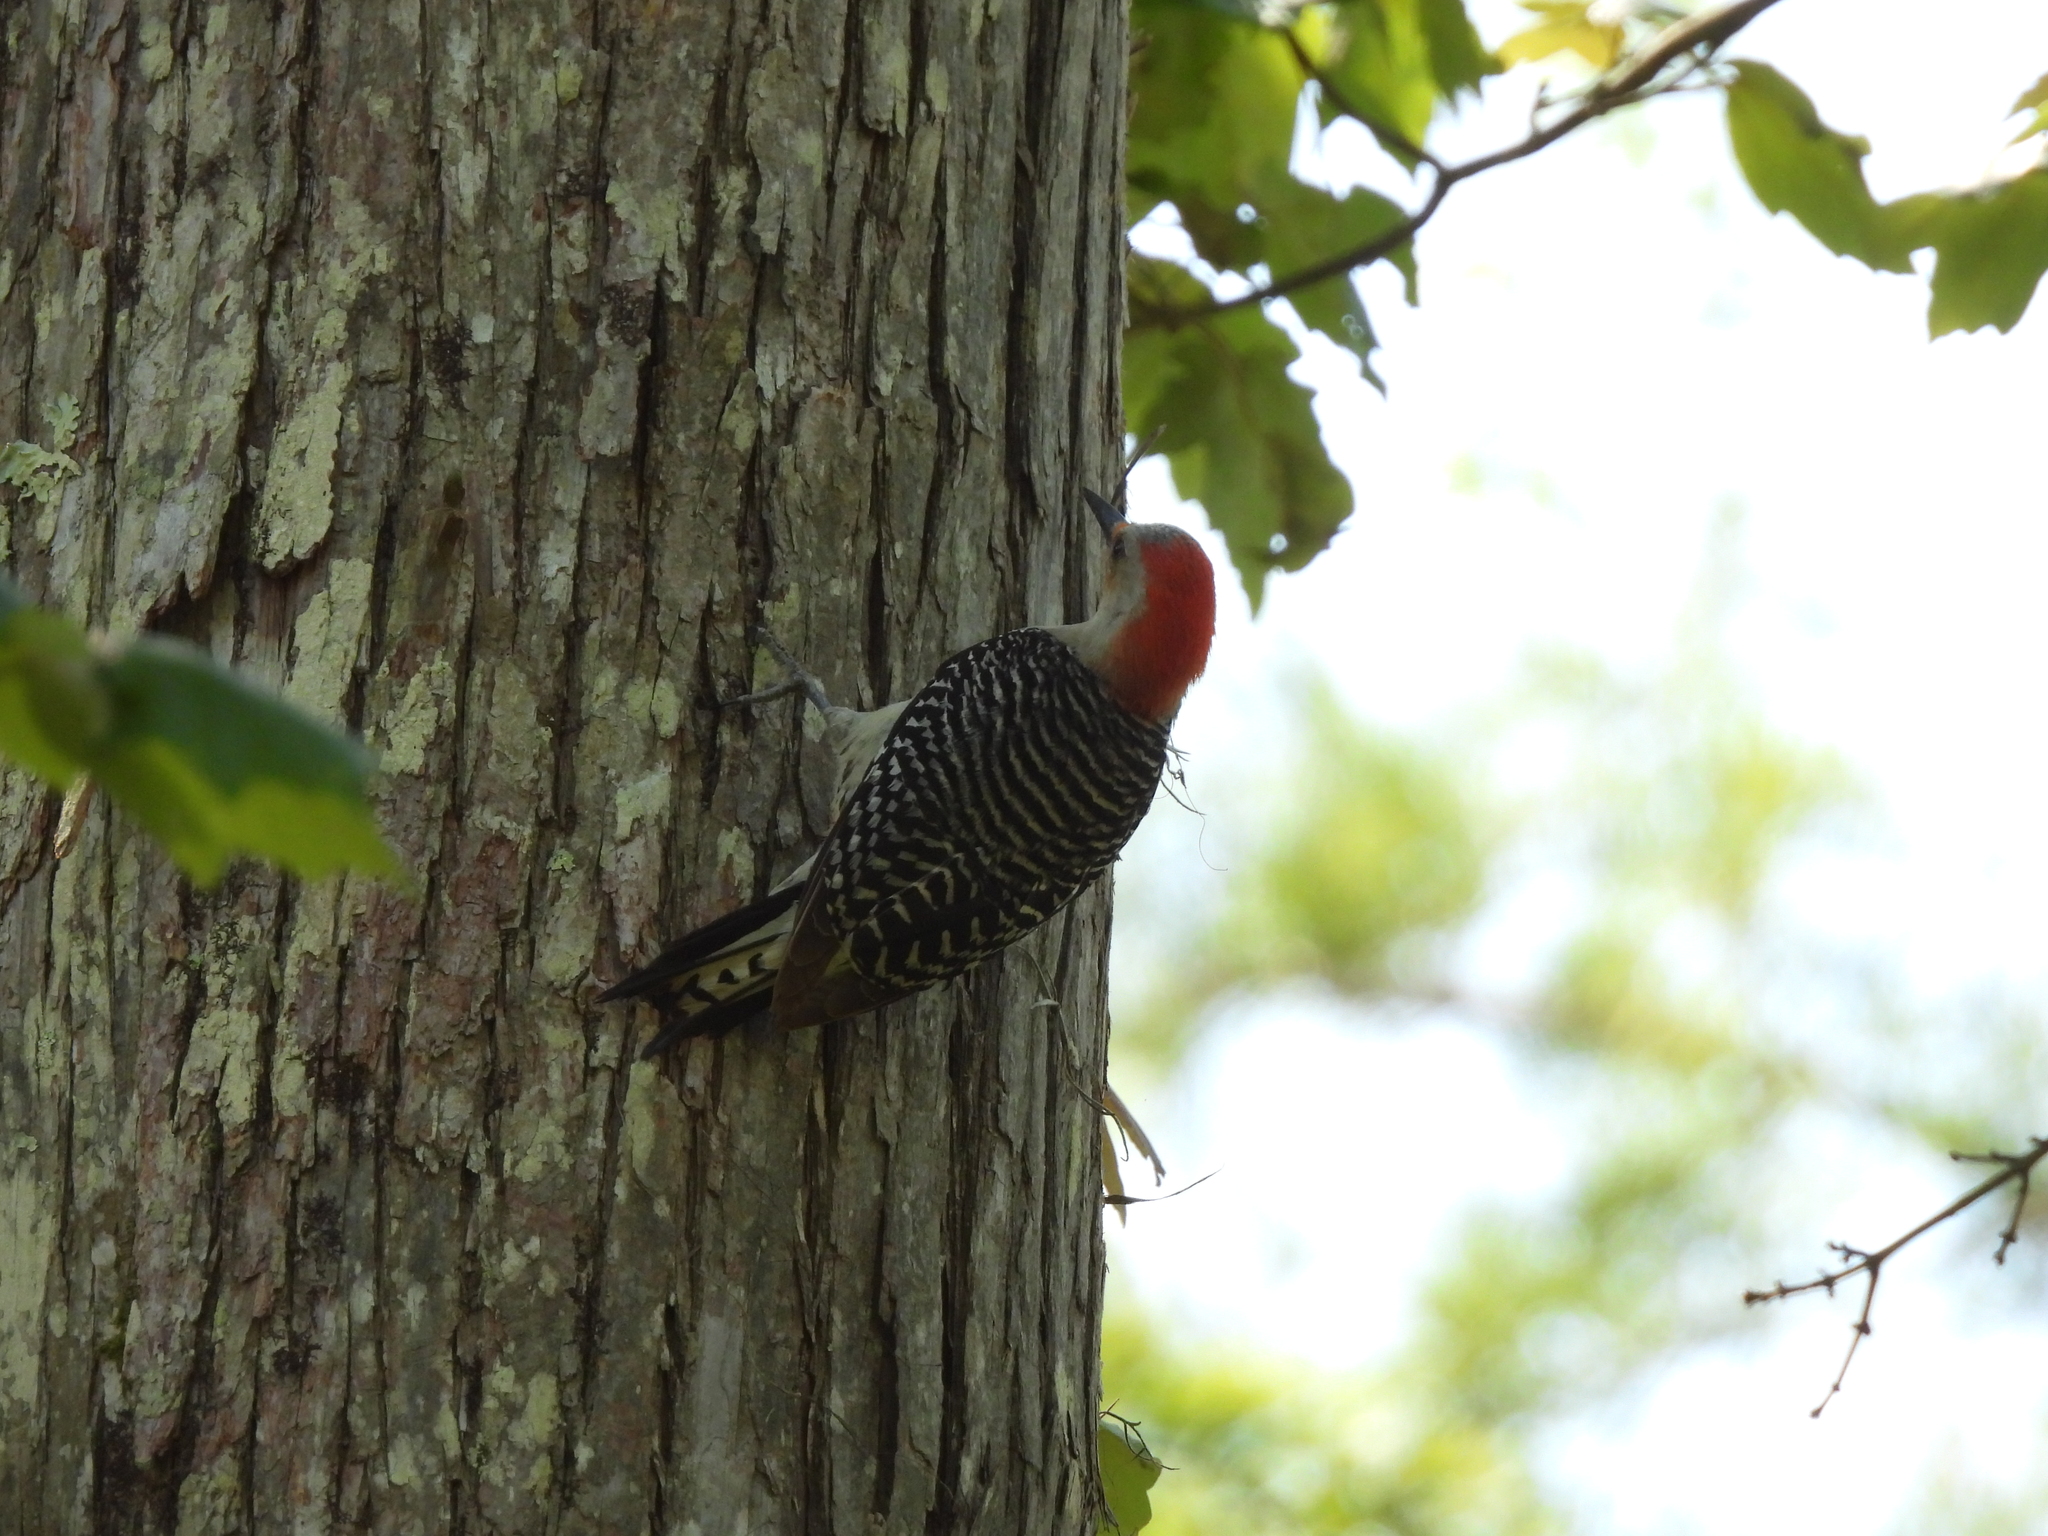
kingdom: Animalia
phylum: Chordata
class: Aves
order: Piciformes
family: Picidae
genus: Melanerpes
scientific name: Melanerpes carolinus
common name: Red-bellied woodpecker
